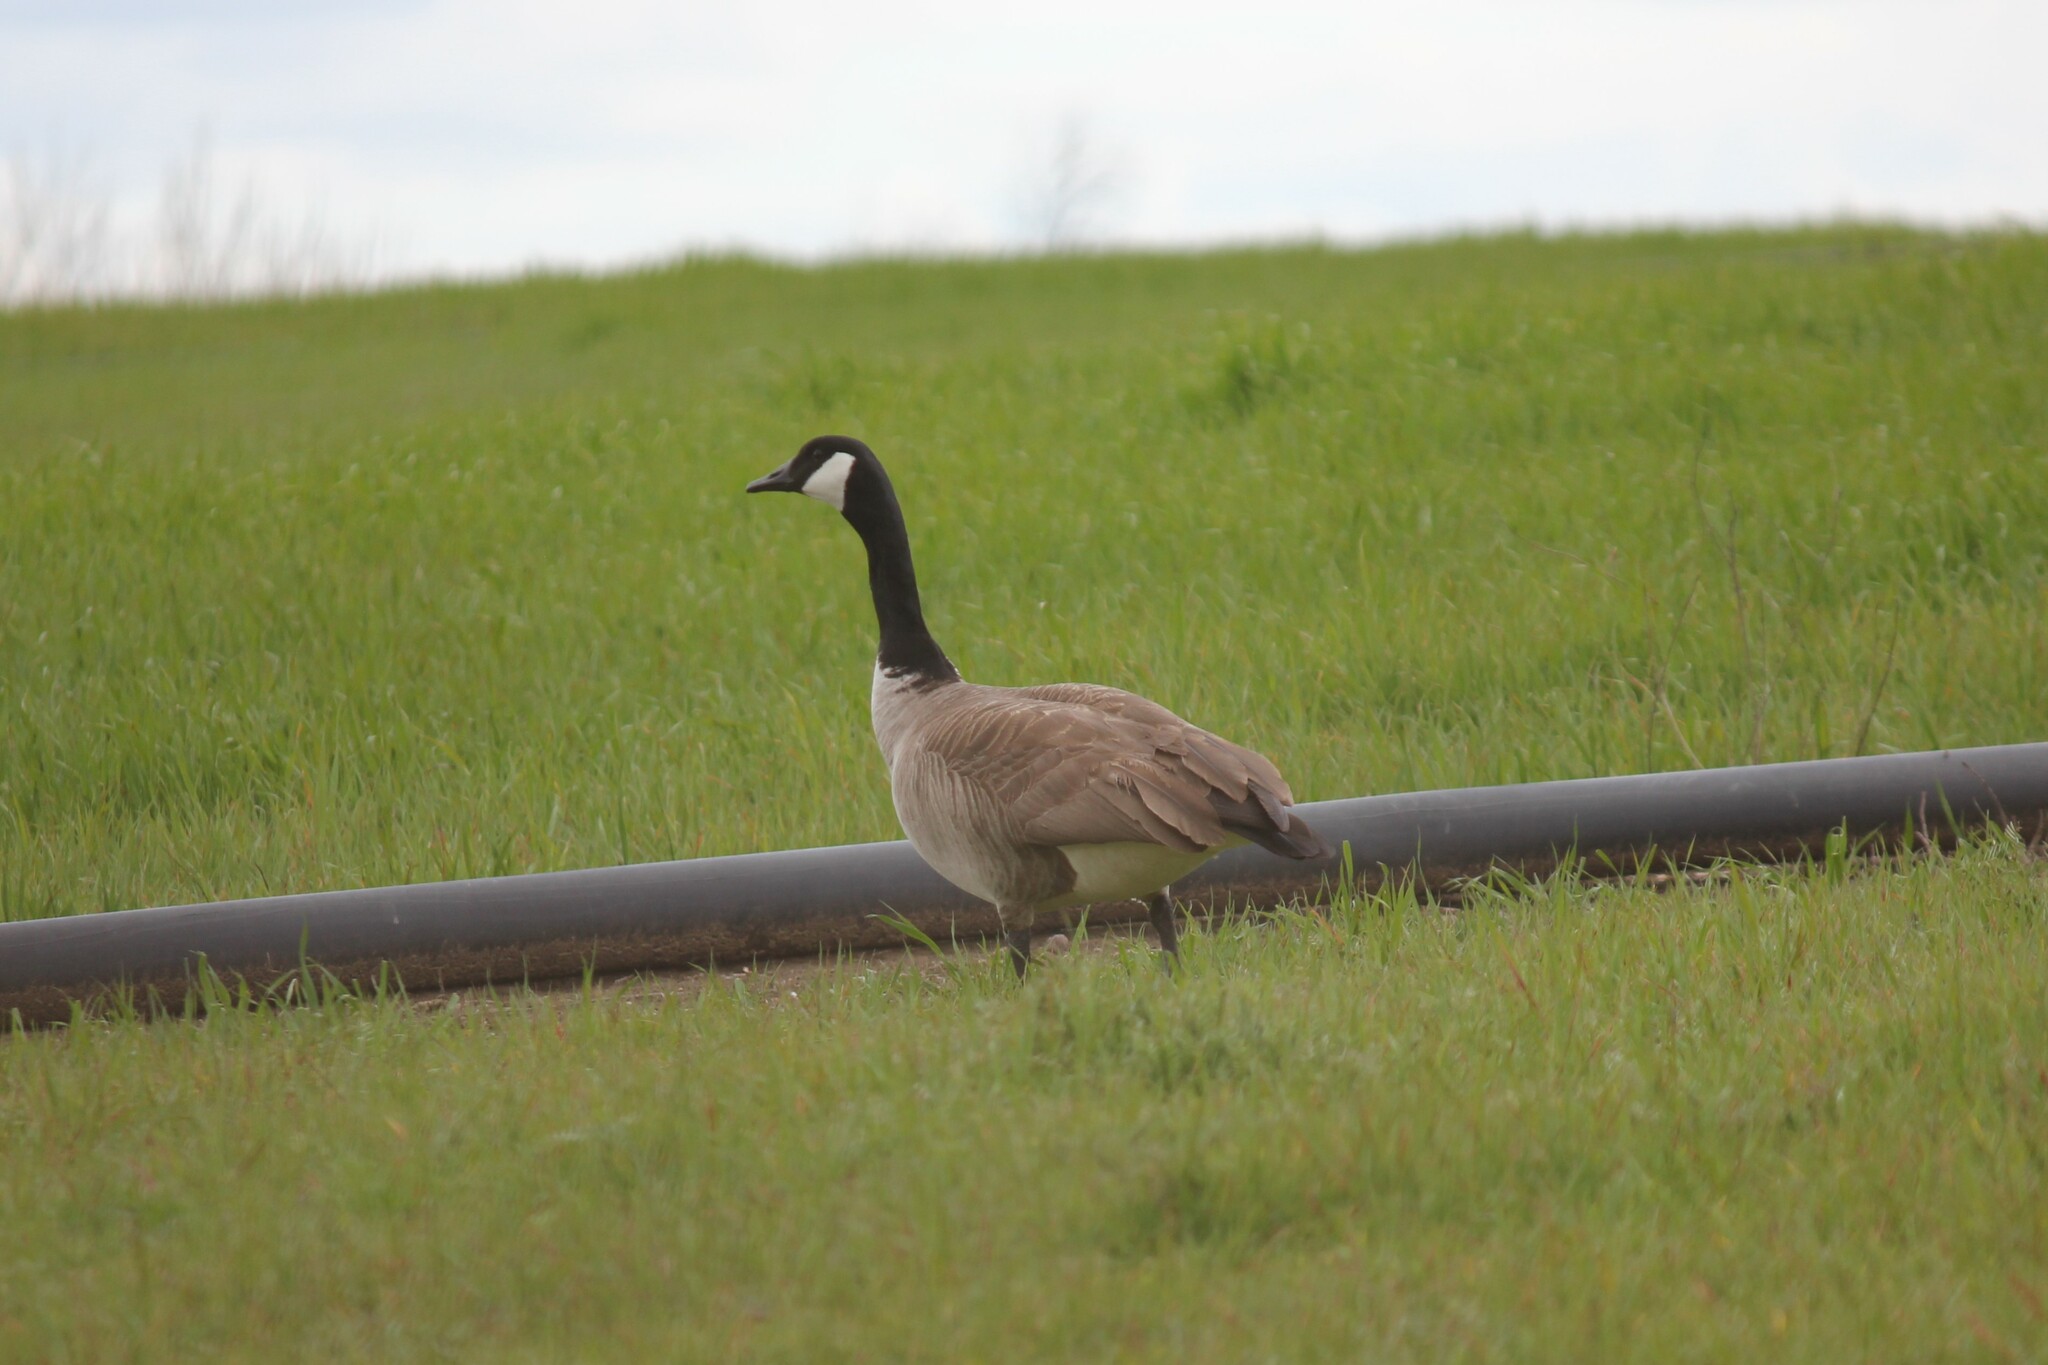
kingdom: Animalia
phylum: Chordata
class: Aves
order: Anseriformes
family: Anatidae
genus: Branta
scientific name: Branta canadensis
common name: Canada goose
